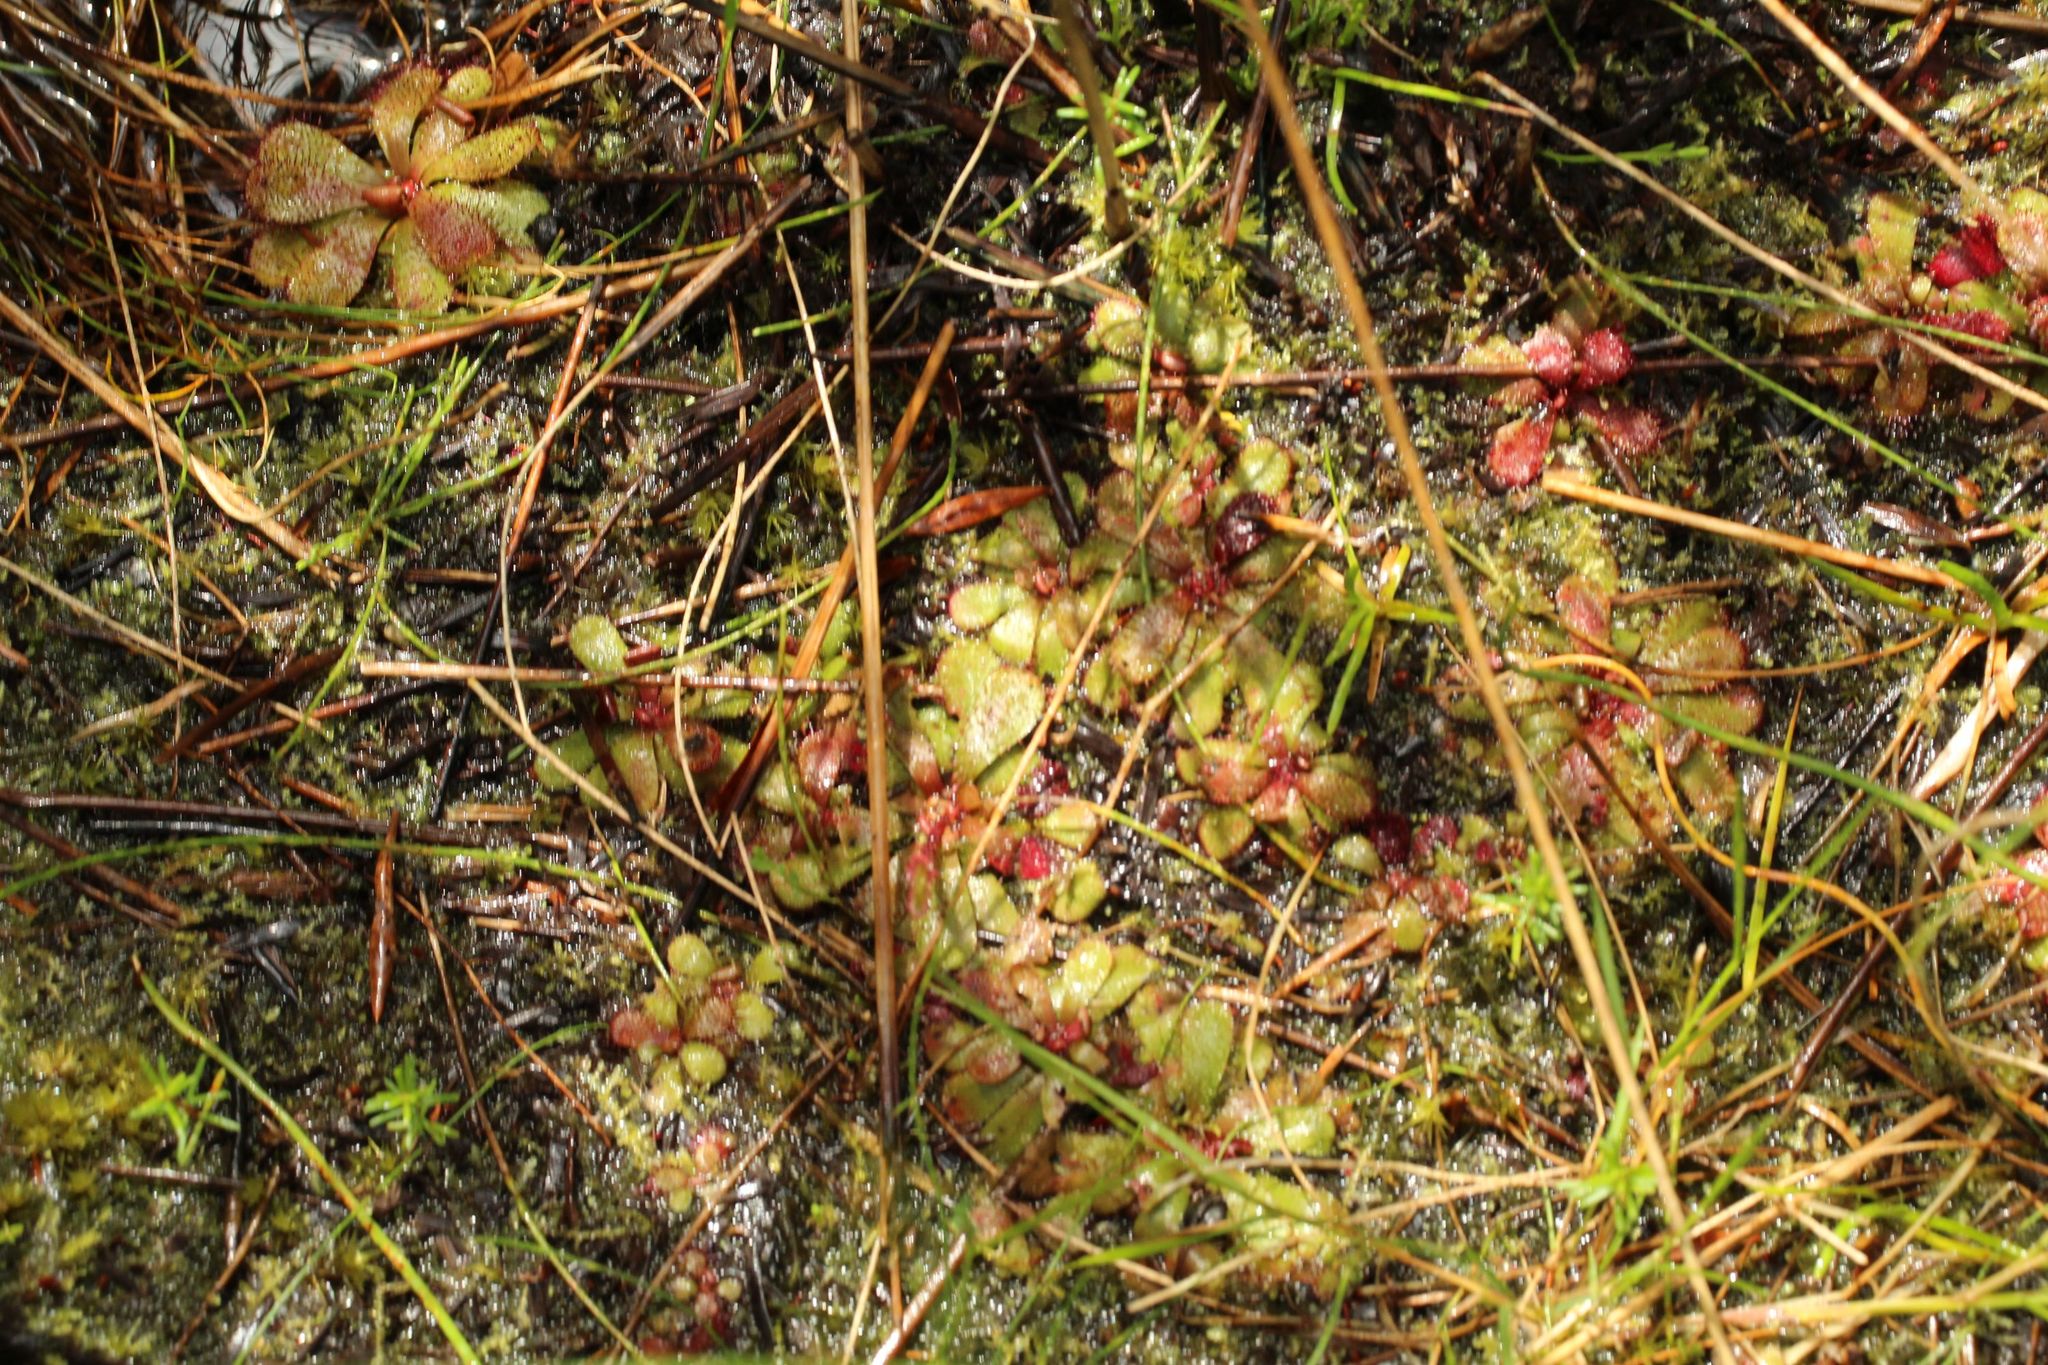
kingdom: Plantae
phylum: Tracheophyta
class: Magnoliopsida
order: Caryophyllales
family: Droseraceae
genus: Drosera
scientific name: Drosera hamiltonii
